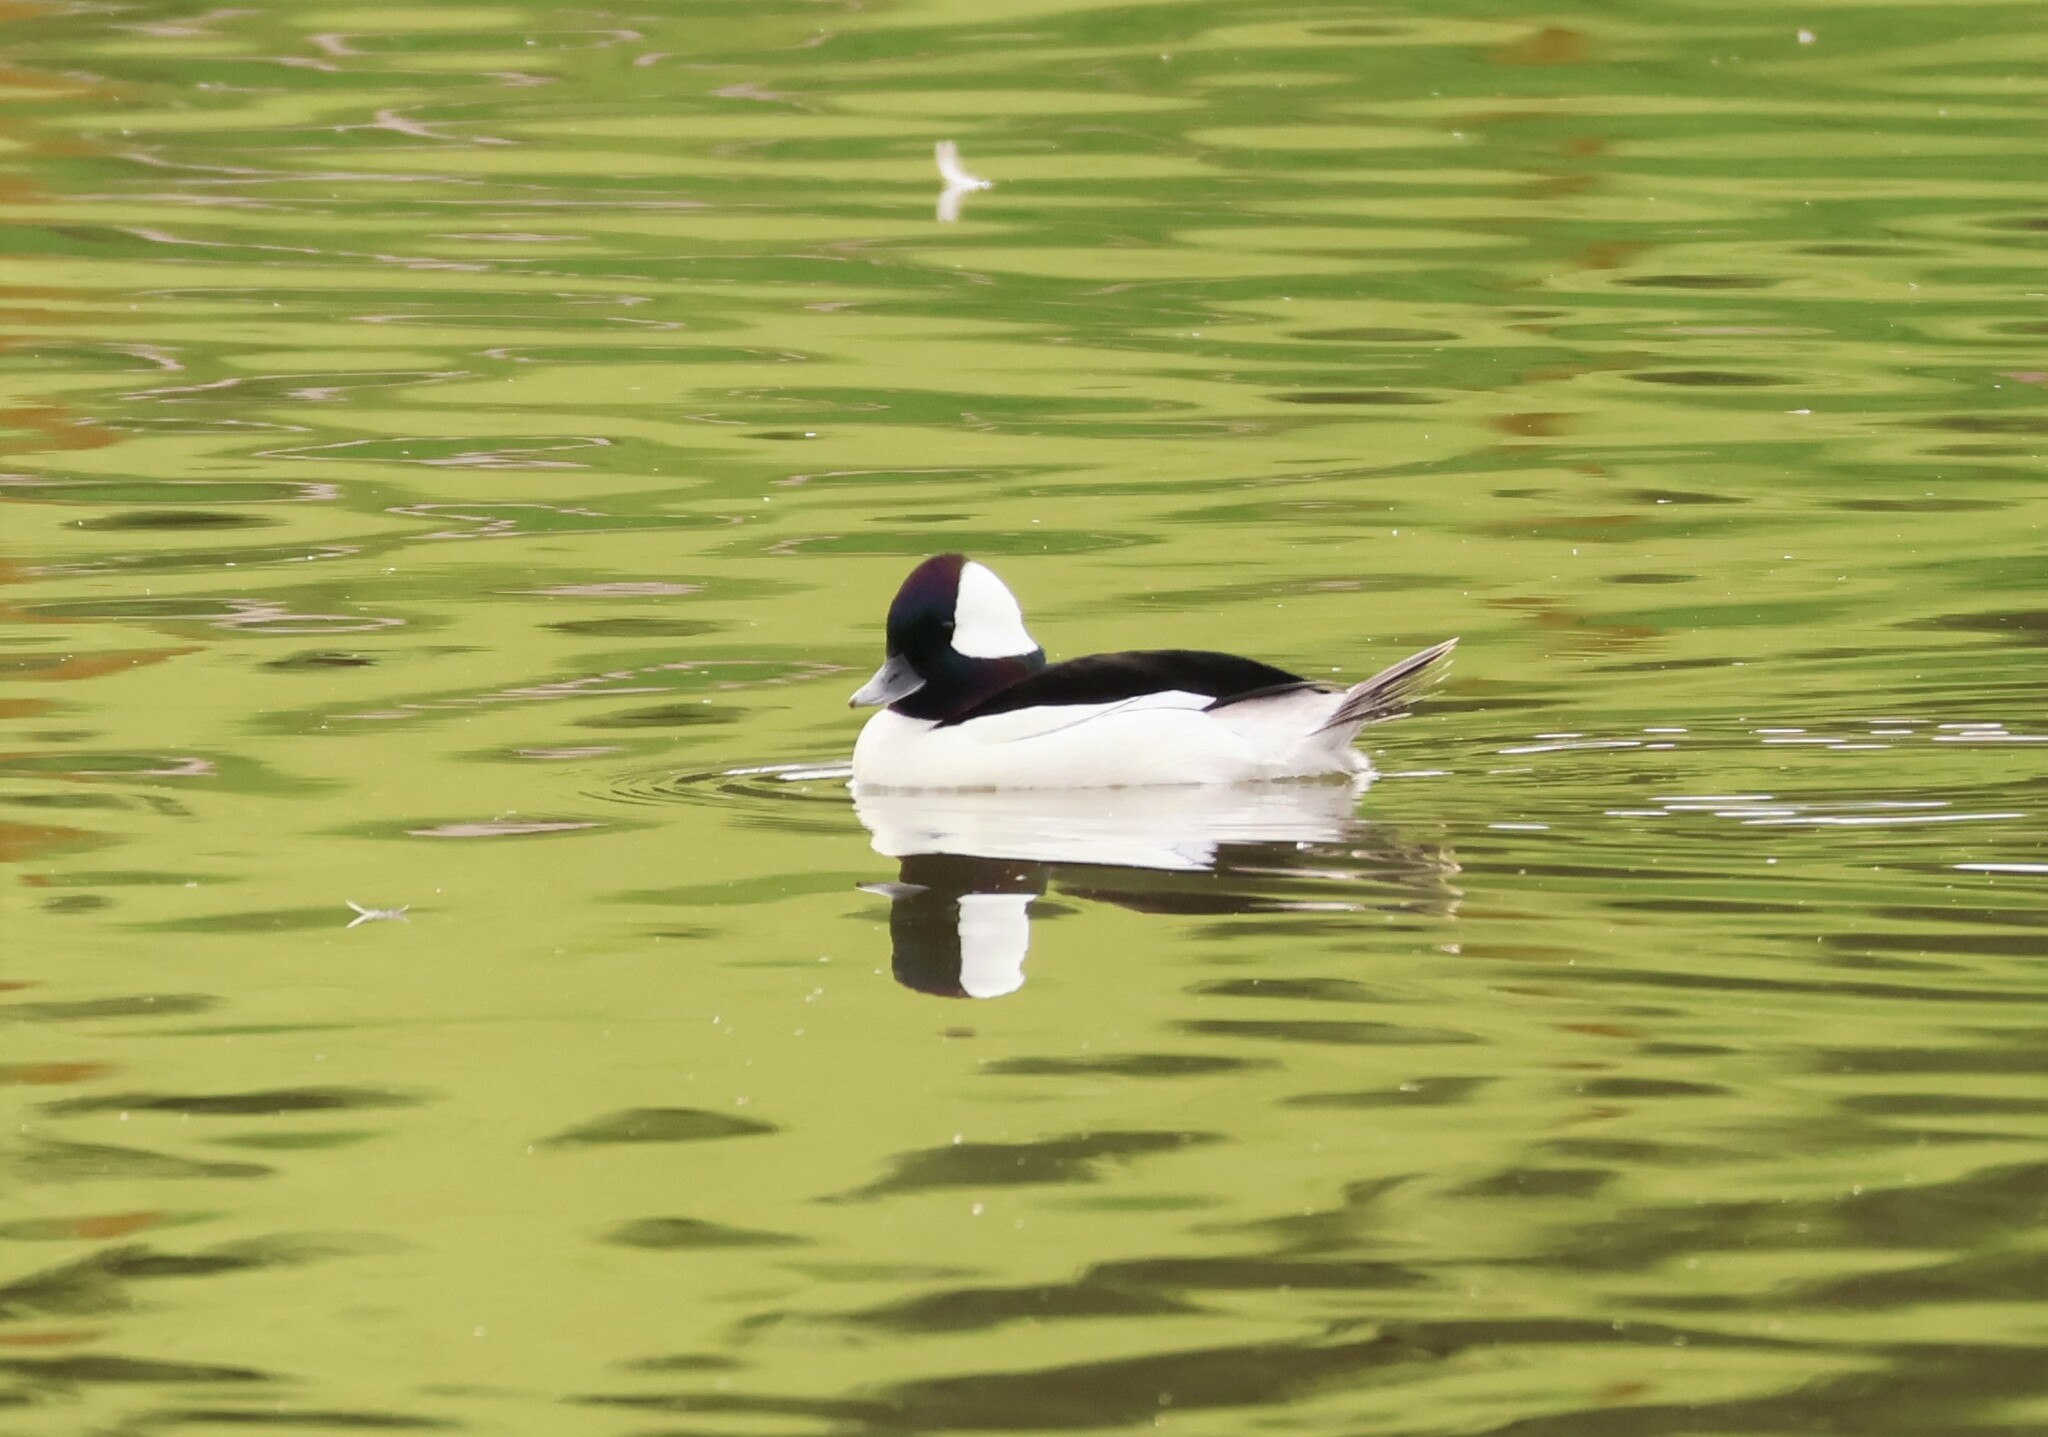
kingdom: Animalia
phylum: Chordata
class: Aves
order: Anseriformes
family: Anatidae
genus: Bucephala
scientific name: Bucephala albeola
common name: Bufflehead
